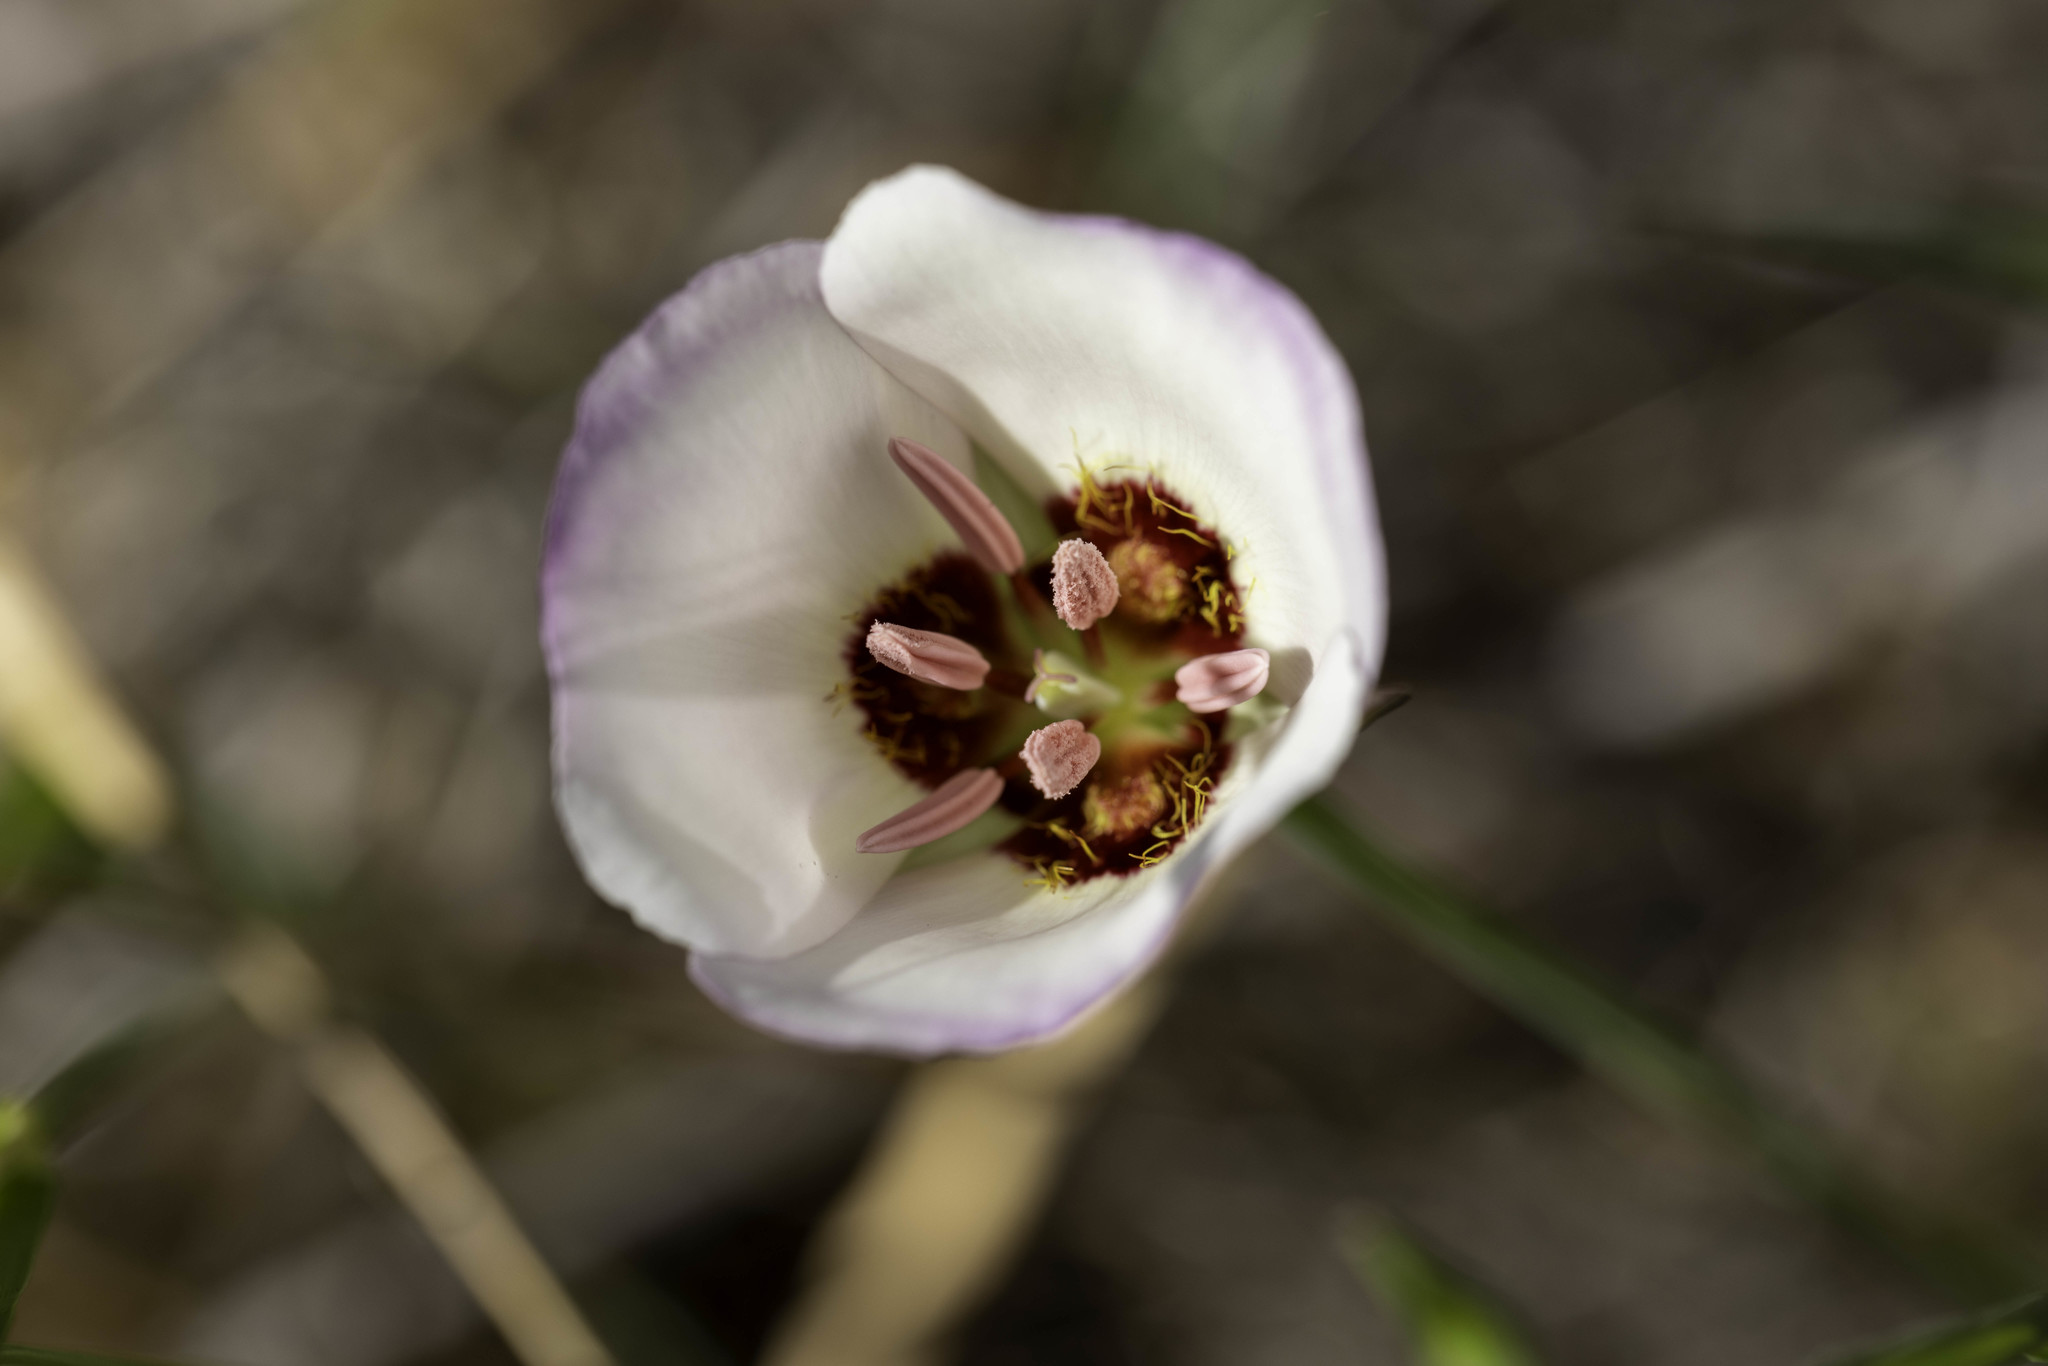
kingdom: Plantae
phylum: Tracheophyta
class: Liliopsida
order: Liliales
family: Liliaceae
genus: Calochortus
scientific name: Calochortus catalinae
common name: Catalina mariposa-lily
